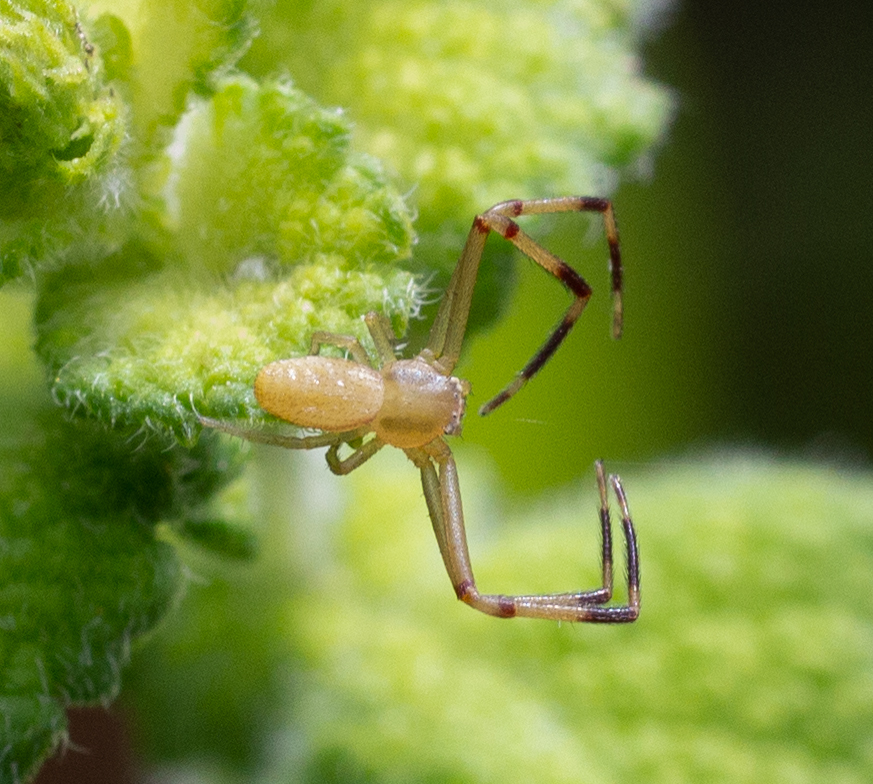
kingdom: Animalia
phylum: Arthropoda
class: Arachnida
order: Araneae
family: Thomisidae
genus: Runcinia
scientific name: Runcinia grammica
